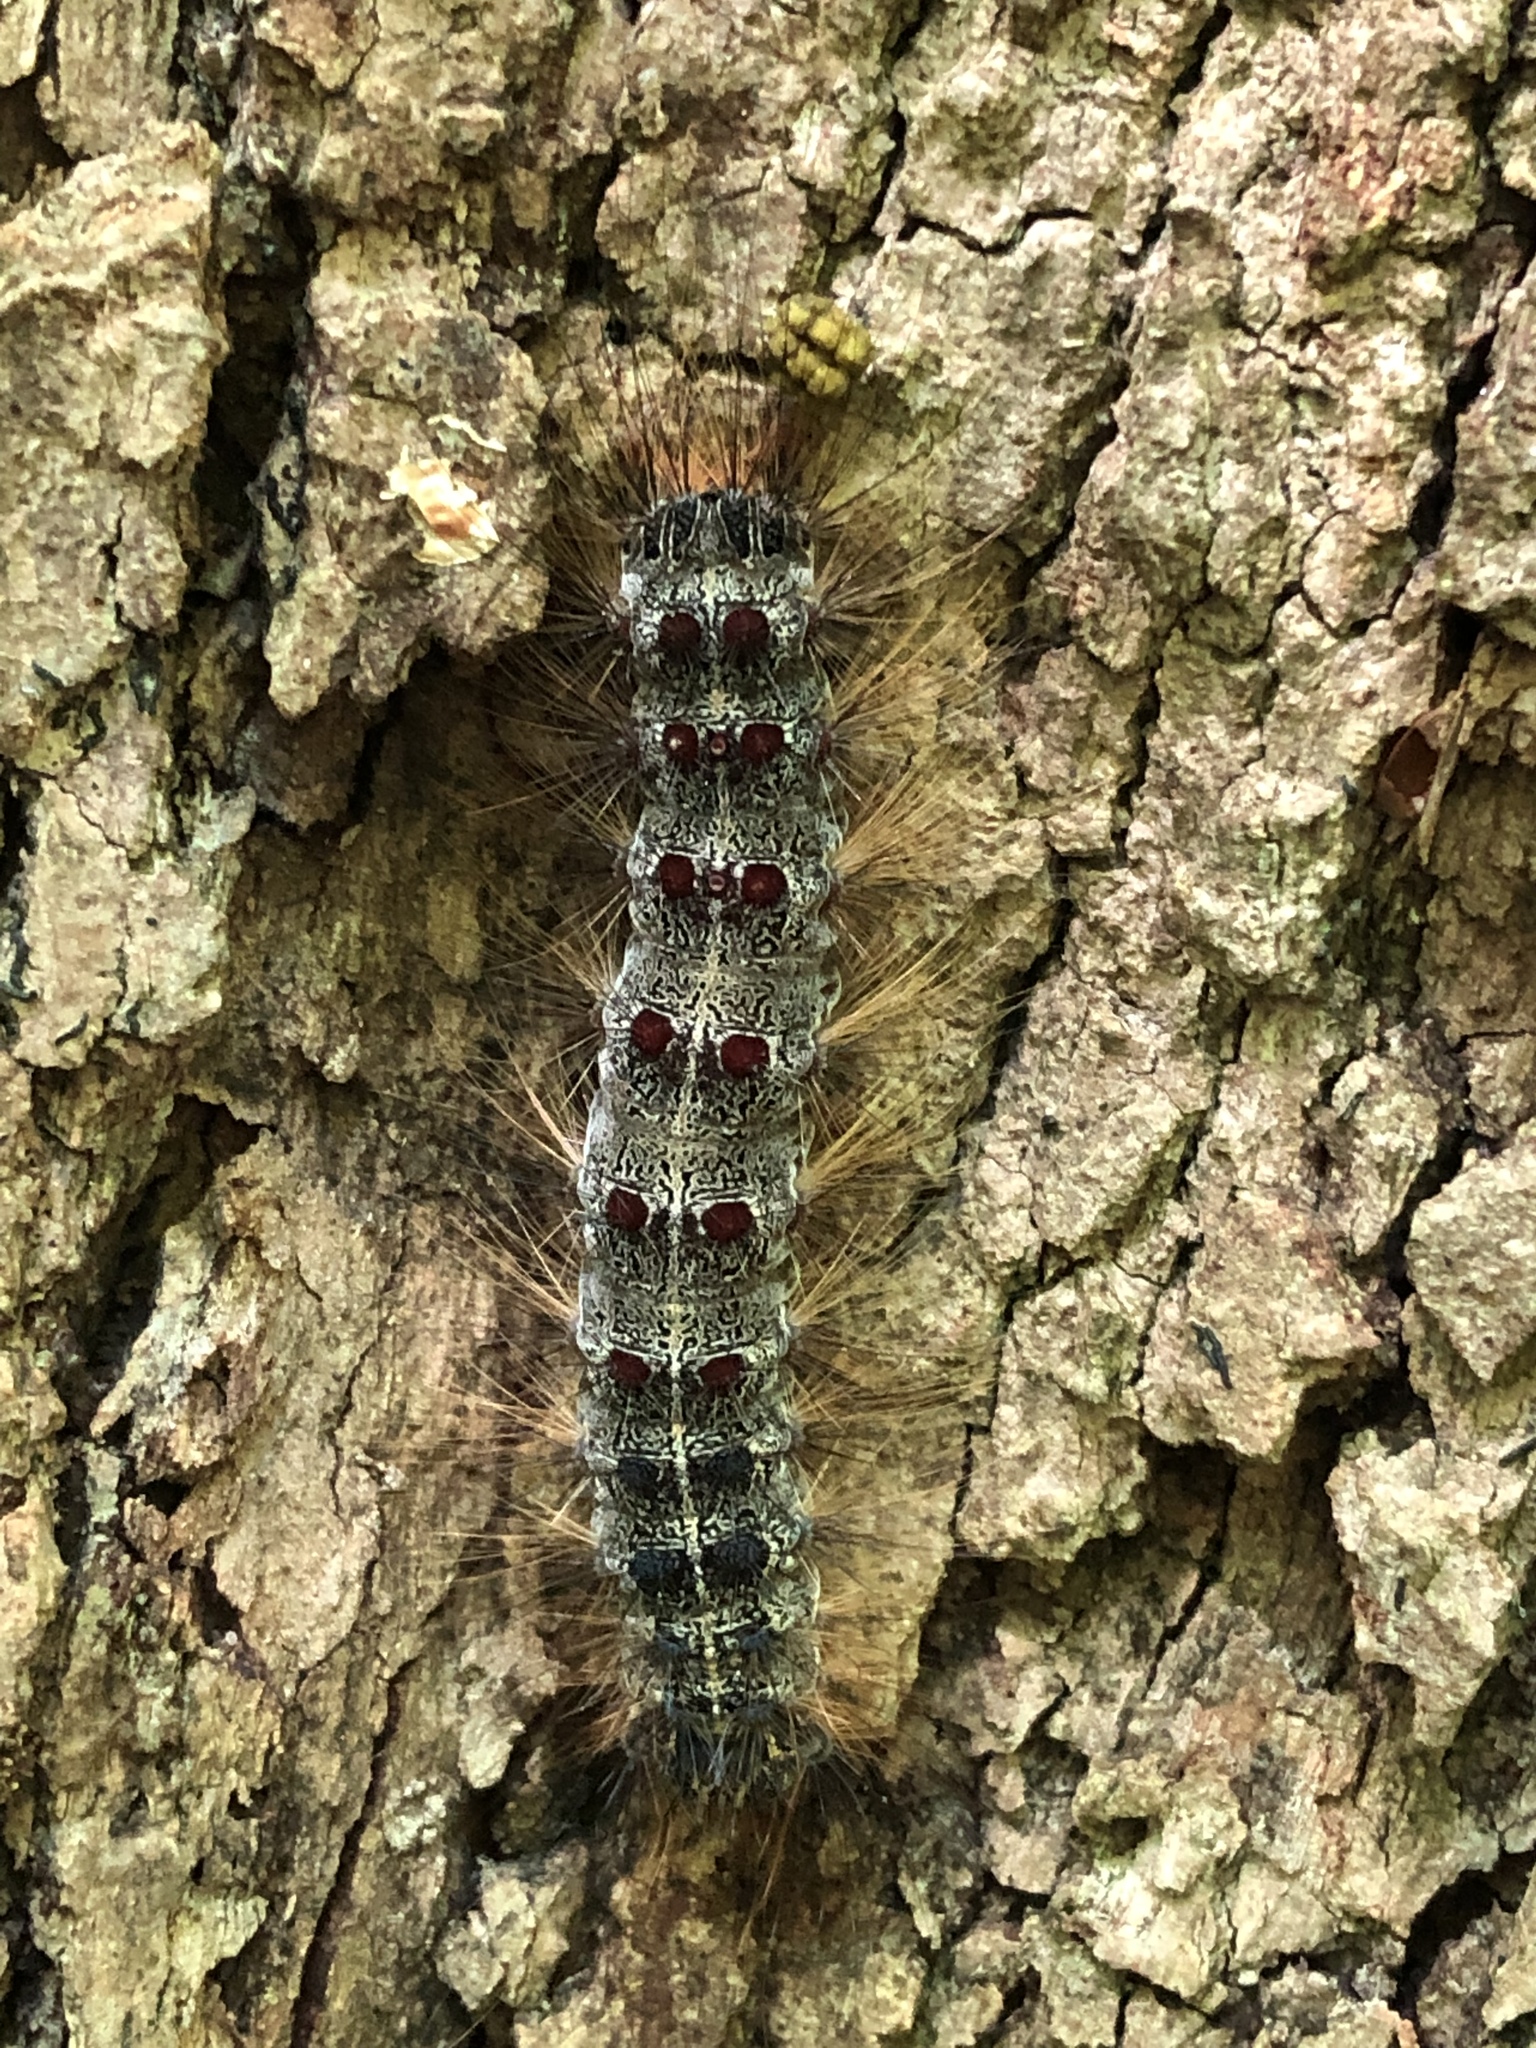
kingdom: Animalia
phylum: Arthropoda
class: Insecta
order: Lepidoptera
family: Erebidae
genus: Lymantria
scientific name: Lymantria dispar
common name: Gypsy moth
